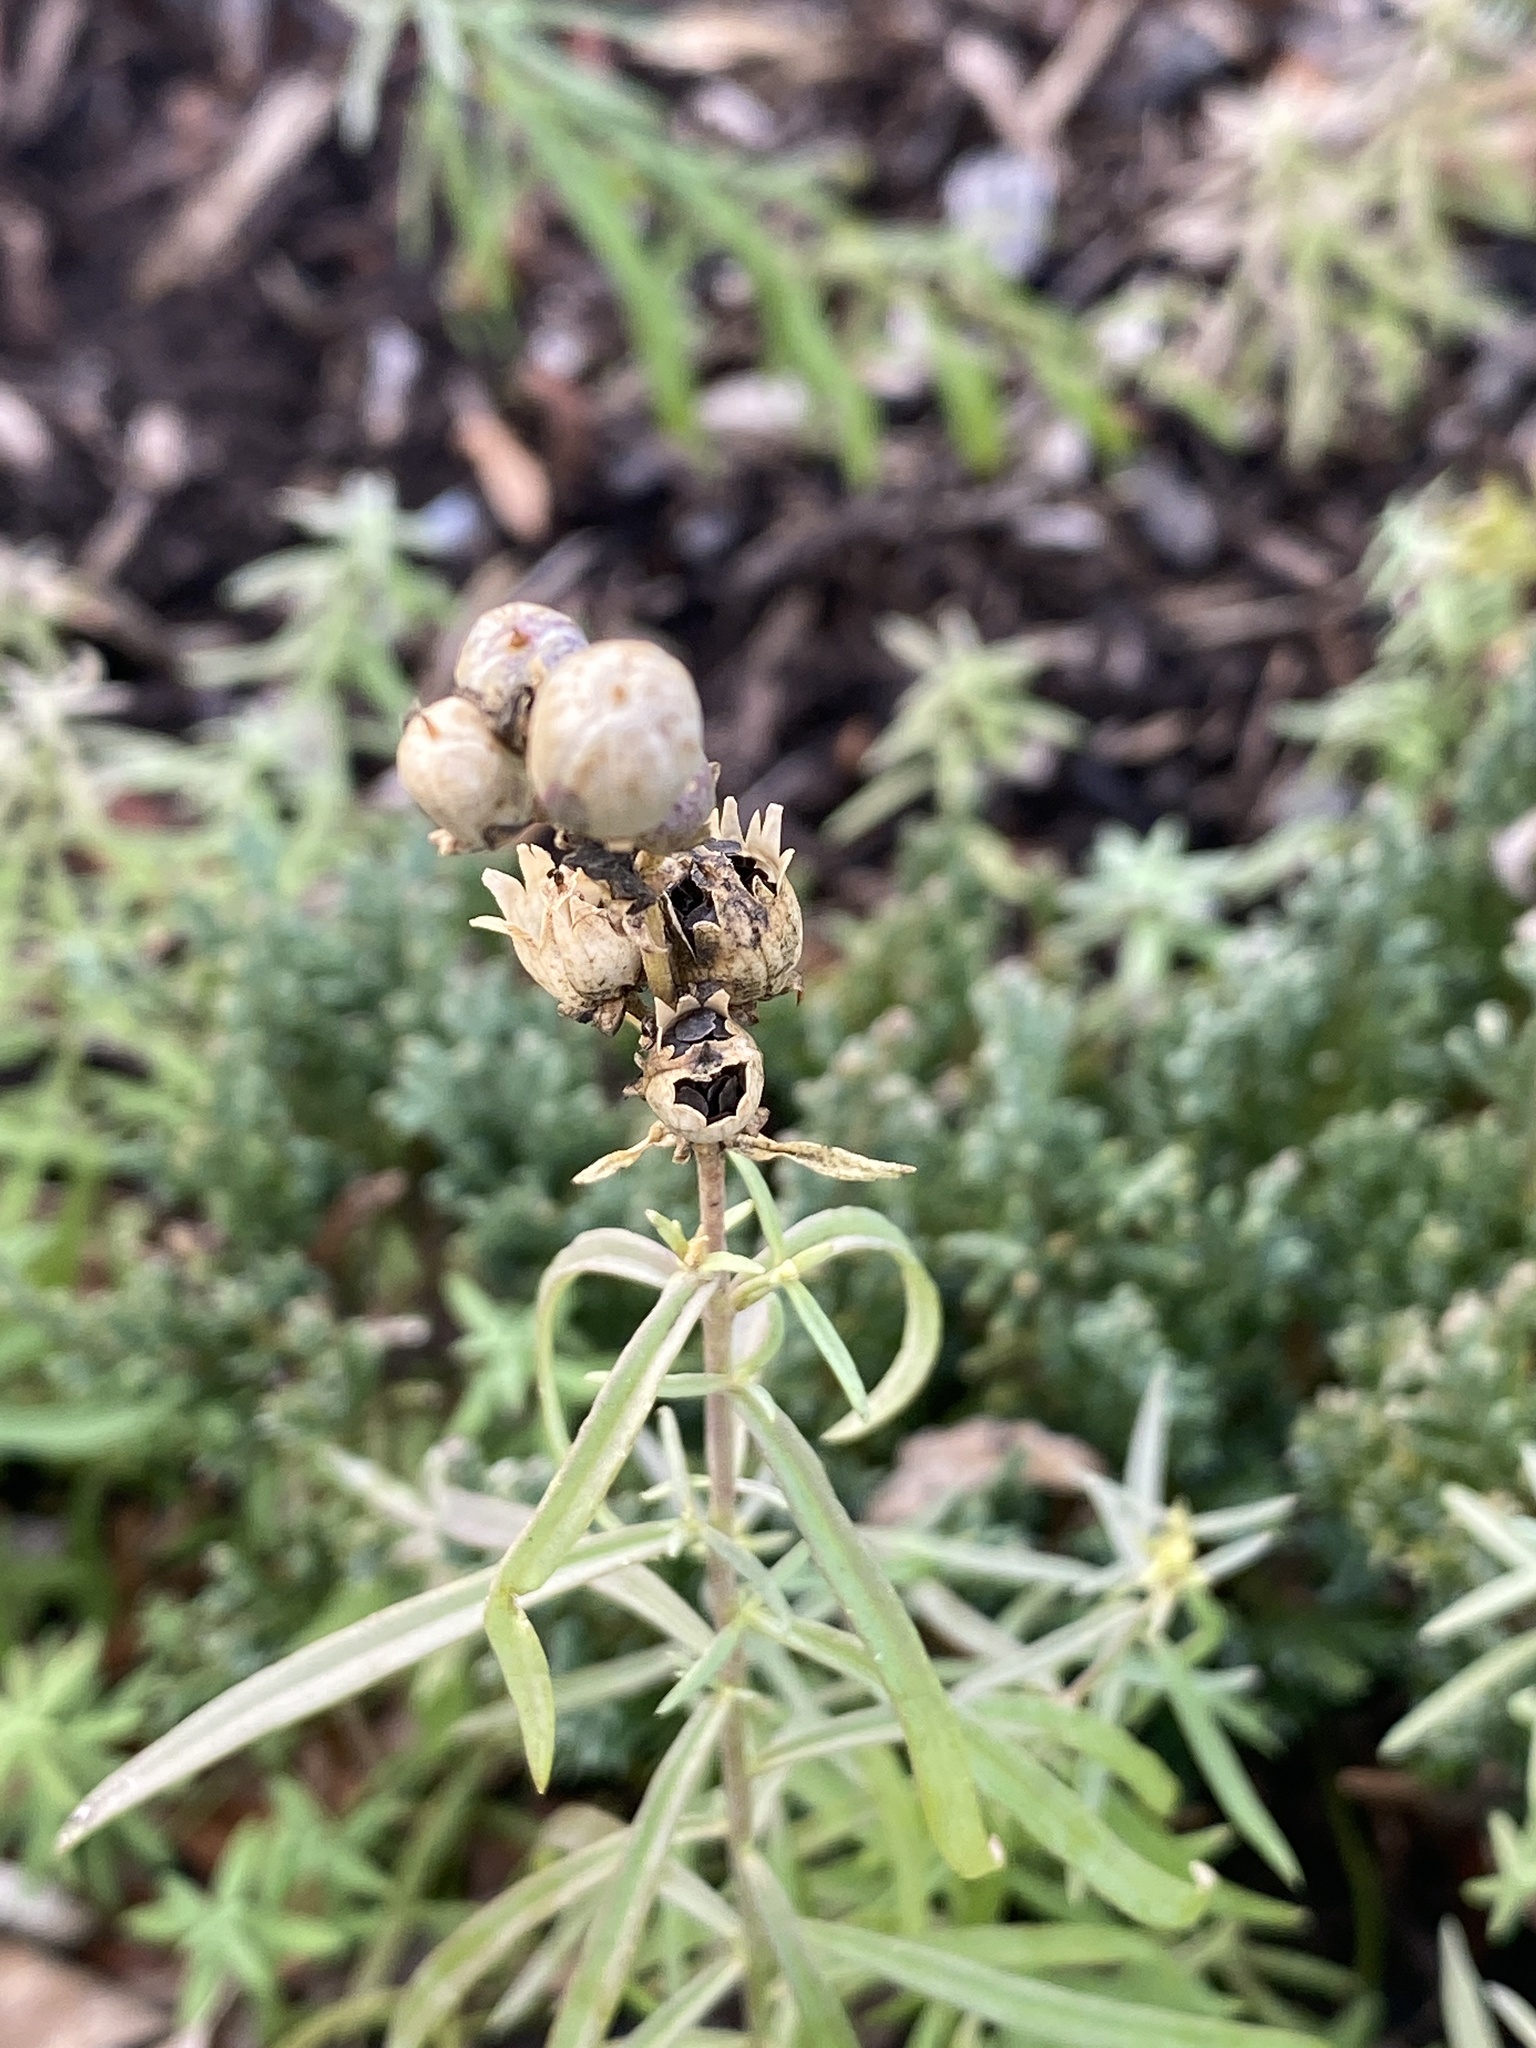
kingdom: Plantae
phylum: Tracheophyta
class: Magnoliopsida
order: Lamiales
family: Plantaginaceae
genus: Linaria
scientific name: Linaria vulgaris
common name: Butter and eggs
